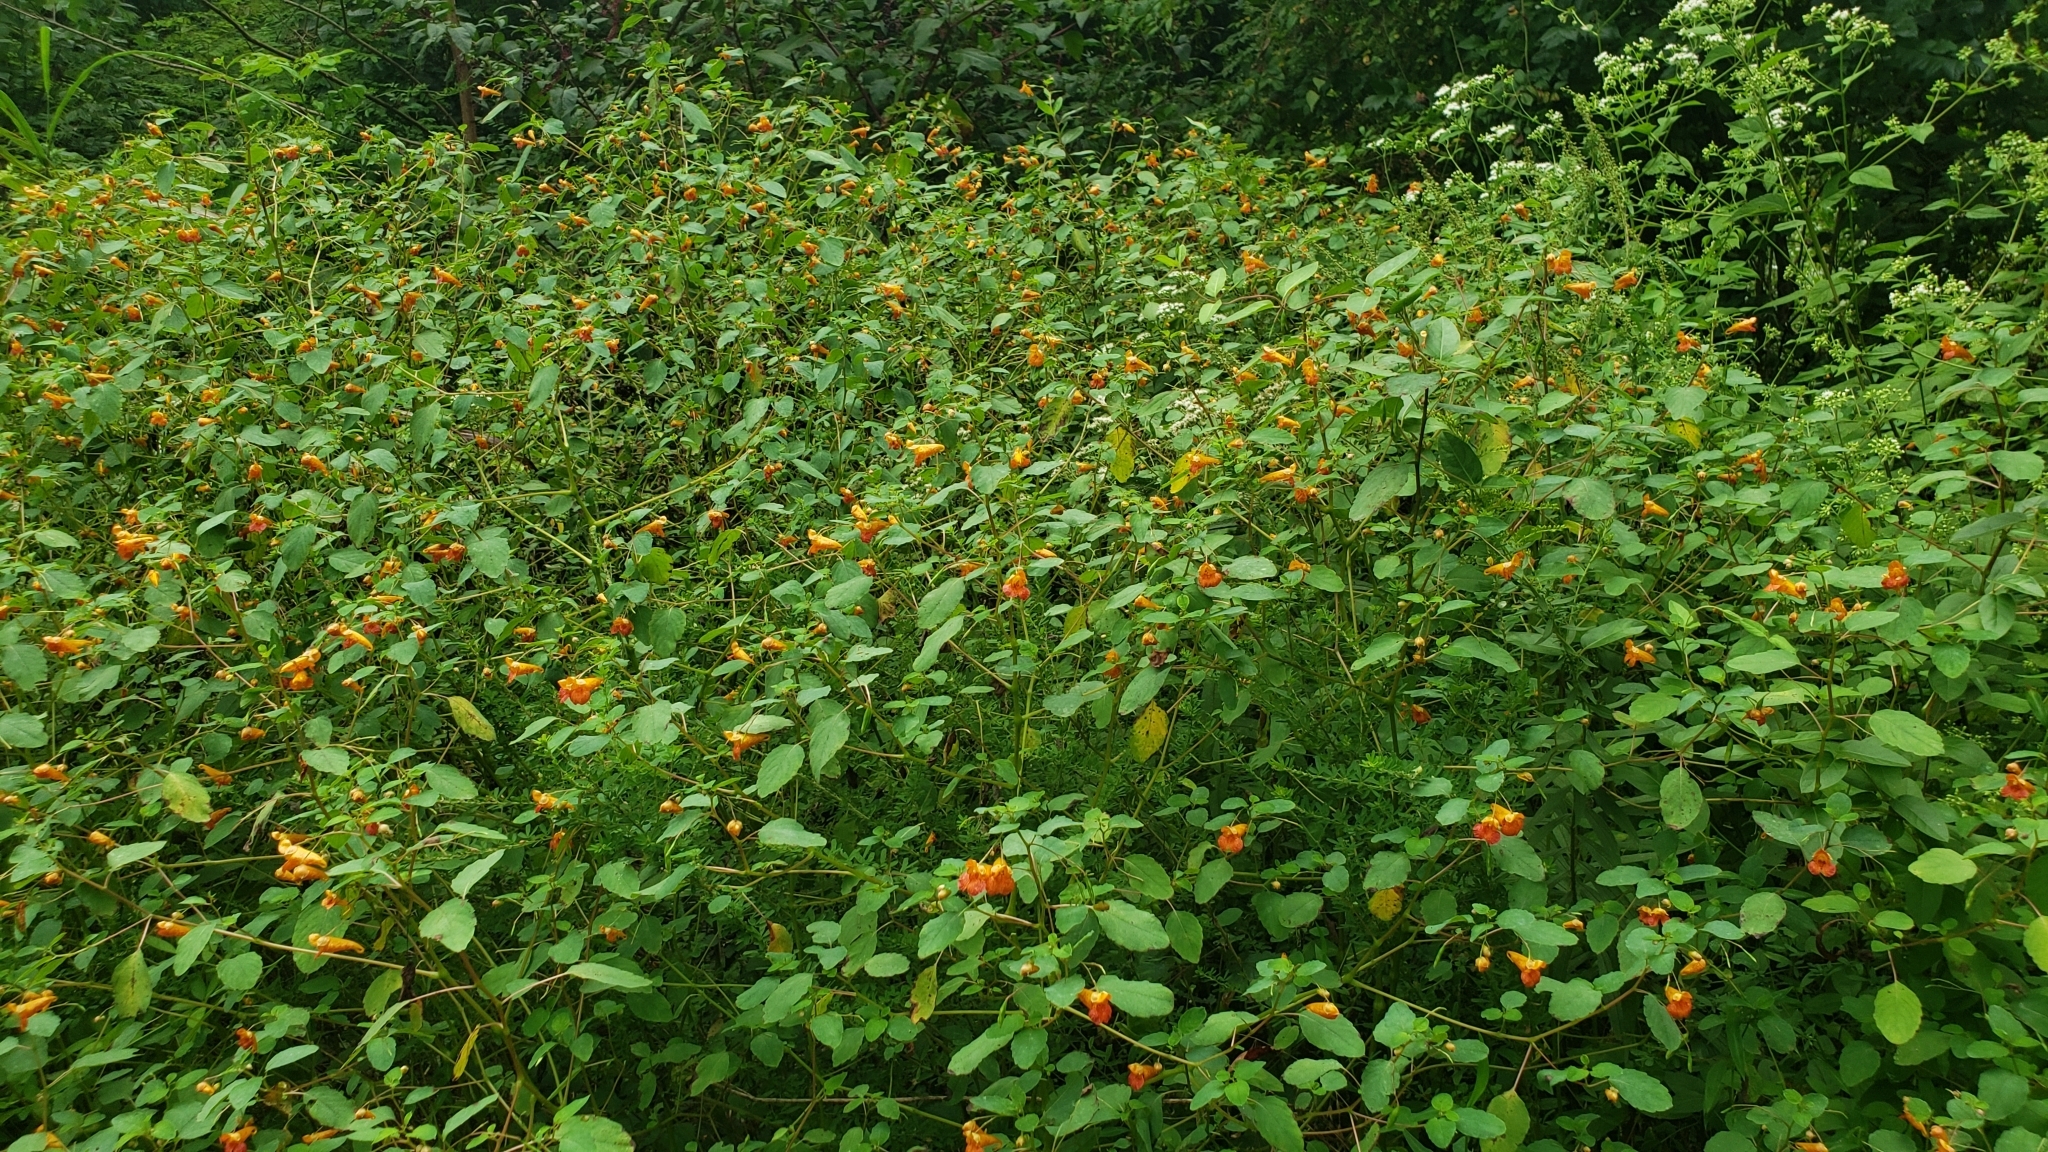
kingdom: Plantae
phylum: Tracheophyta
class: Magnoliopsida
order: Ericales
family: Balsaminaceae
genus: Impatiens
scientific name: Impatiens capensis
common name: Orange balsam
